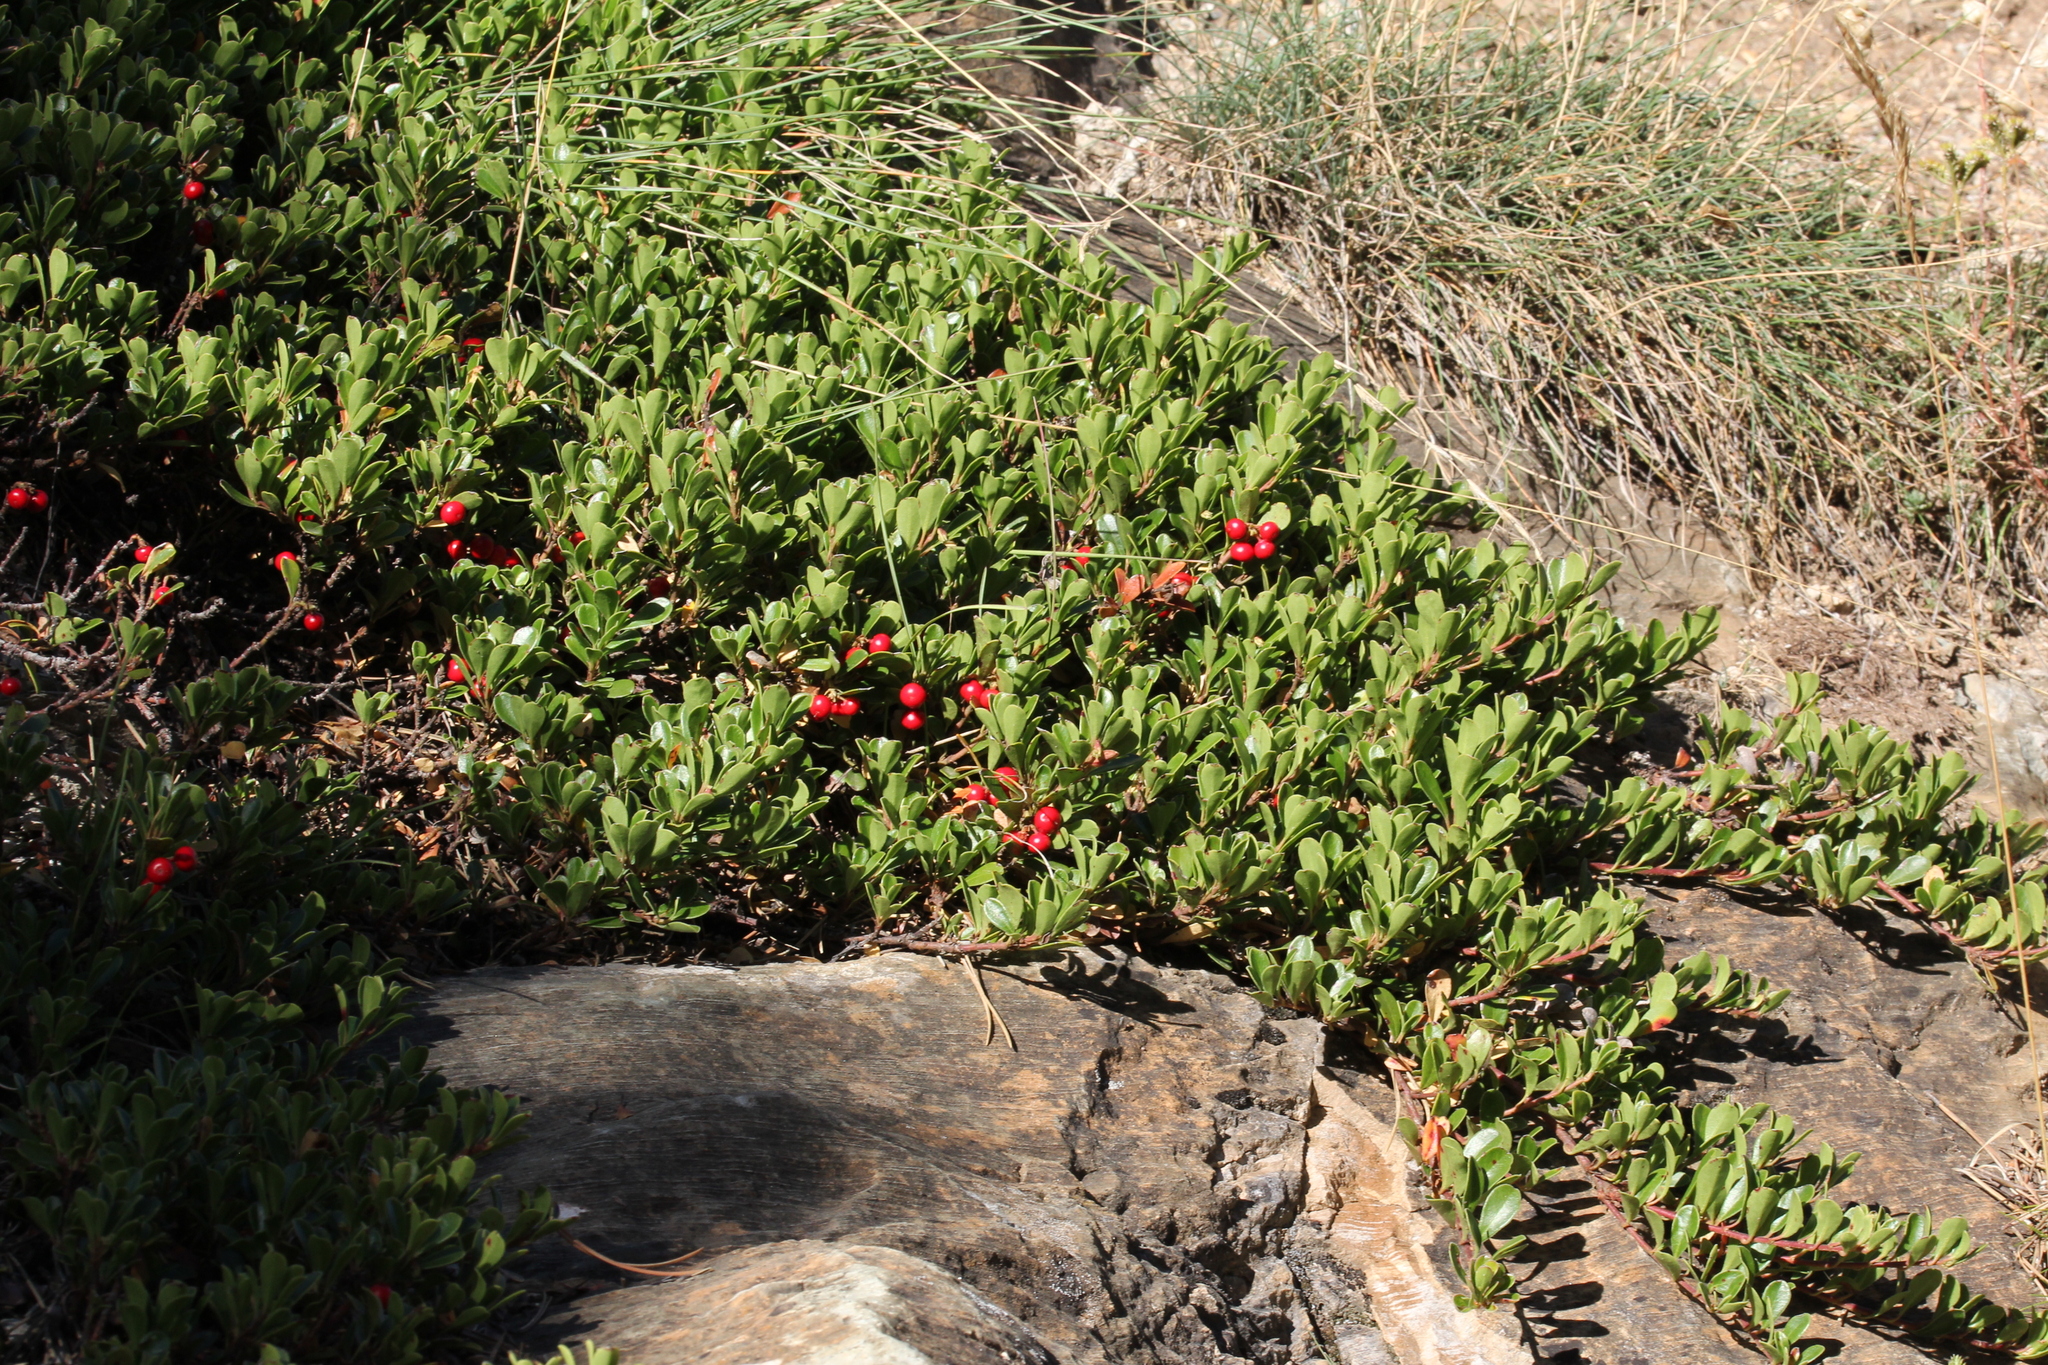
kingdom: Plantae
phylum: Tracheophyta
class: Magnoliopsida
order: Ericales
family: Ericaceae
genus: Arctostaphylos
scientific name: Arctostaphylos uva-ursi
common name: Bearberry
